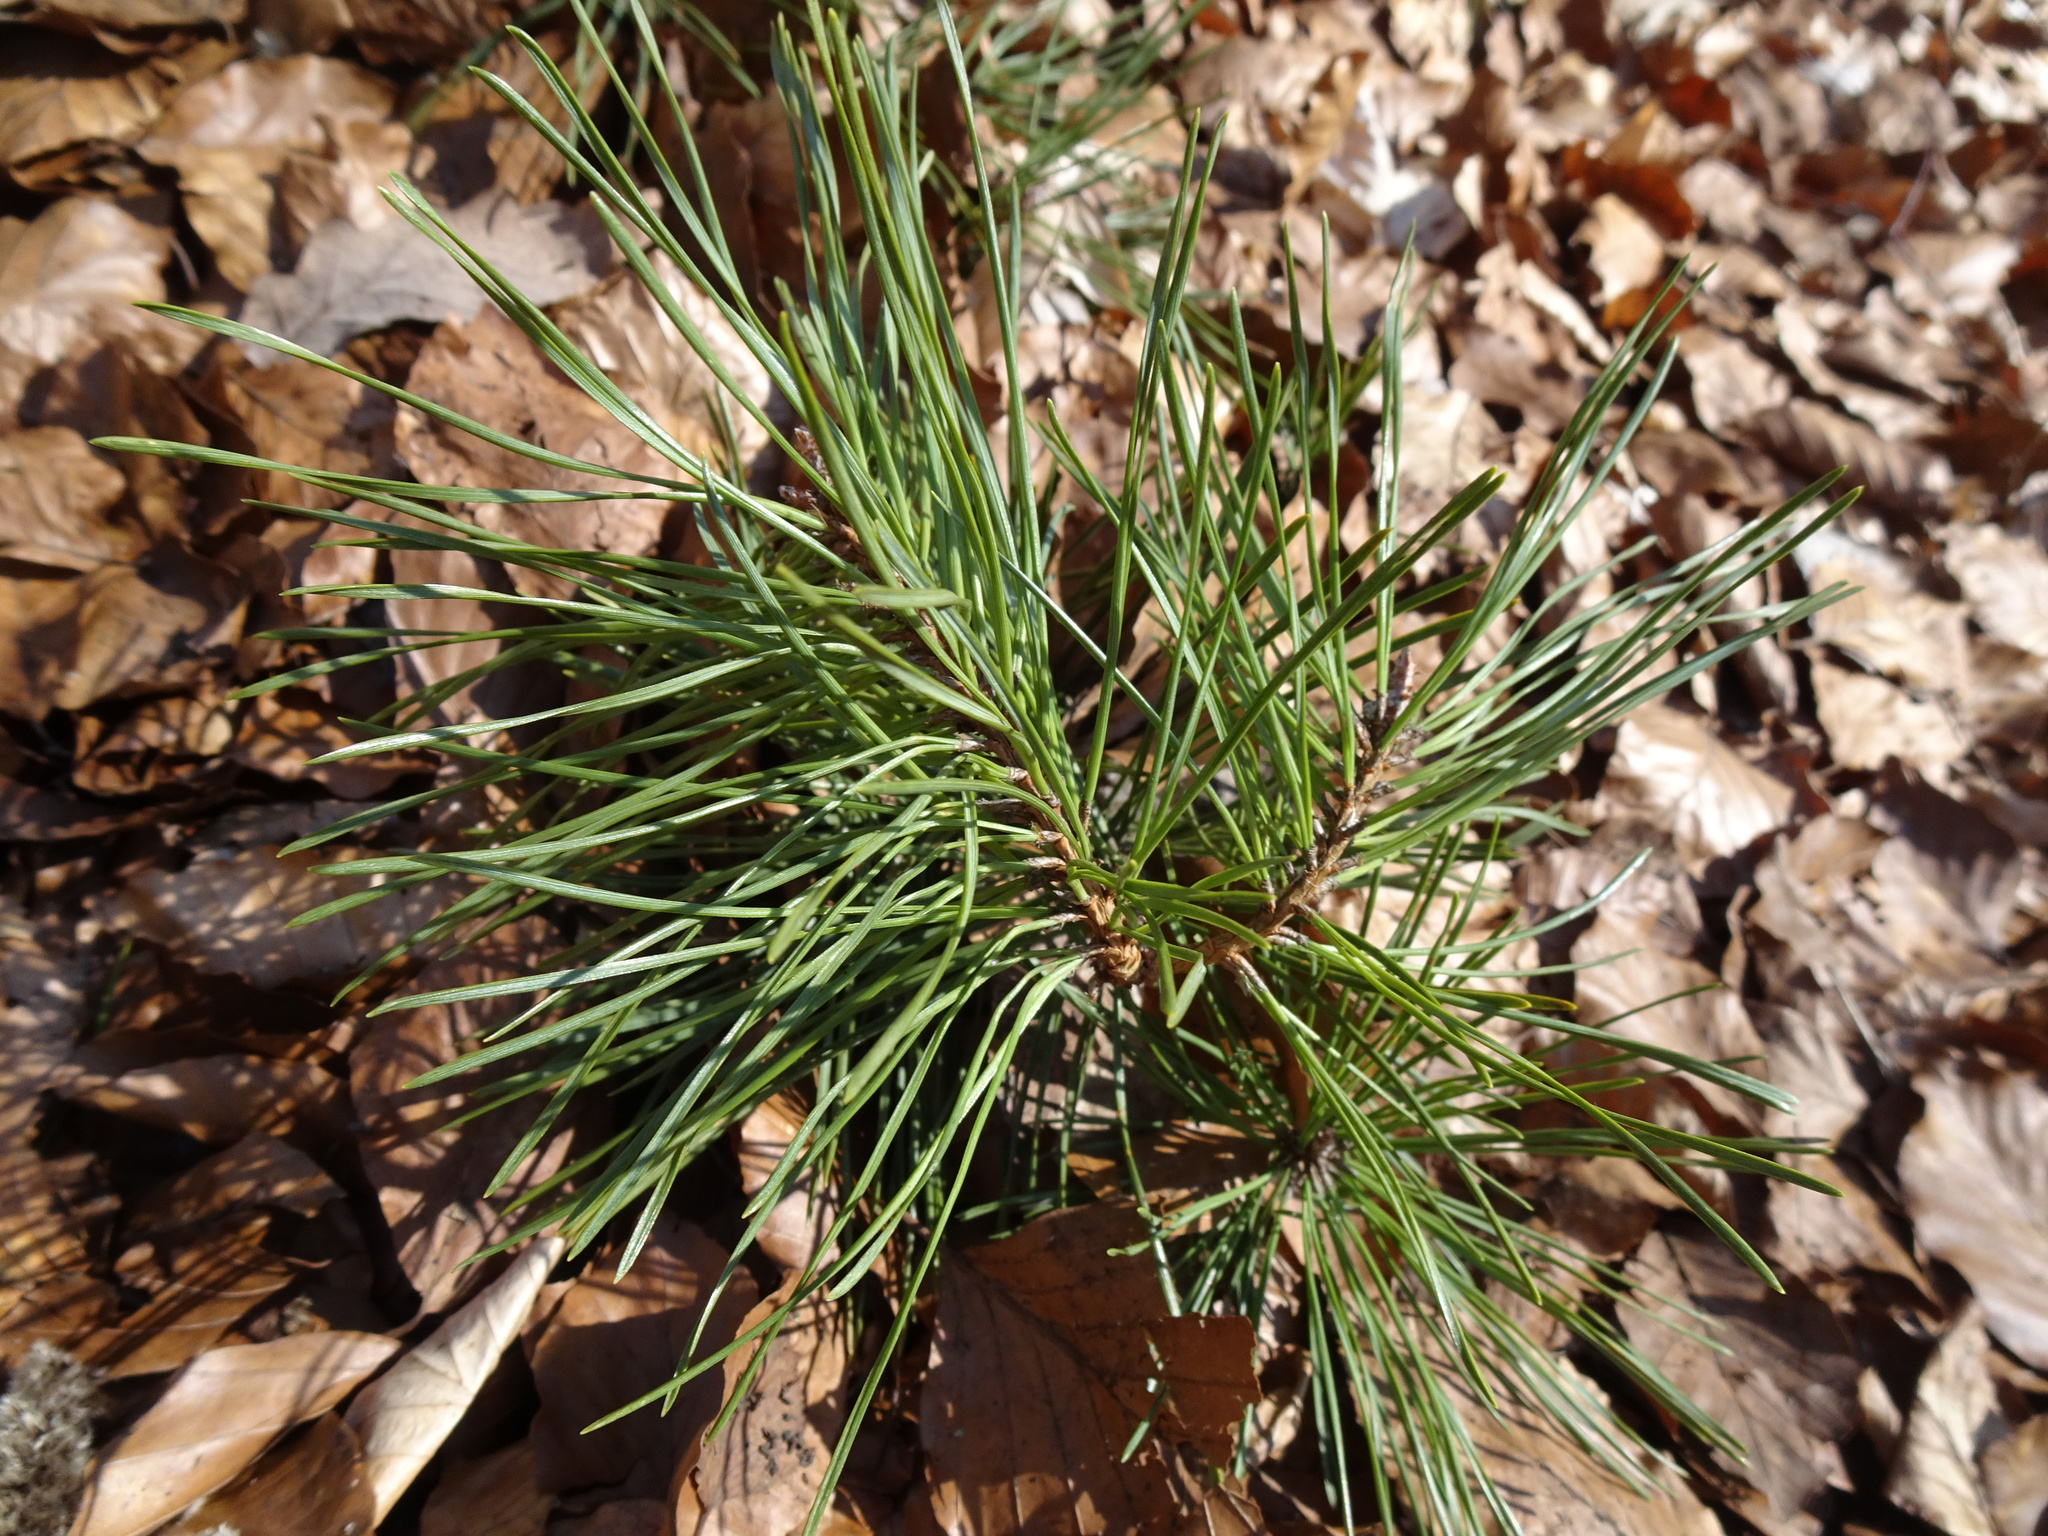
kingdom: Plantae
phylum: Tracheophyta
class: Pinopsida
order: Pinales
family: Pinaceae
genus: Pinus
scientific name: Pinus sylvestris
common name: Scots pine
